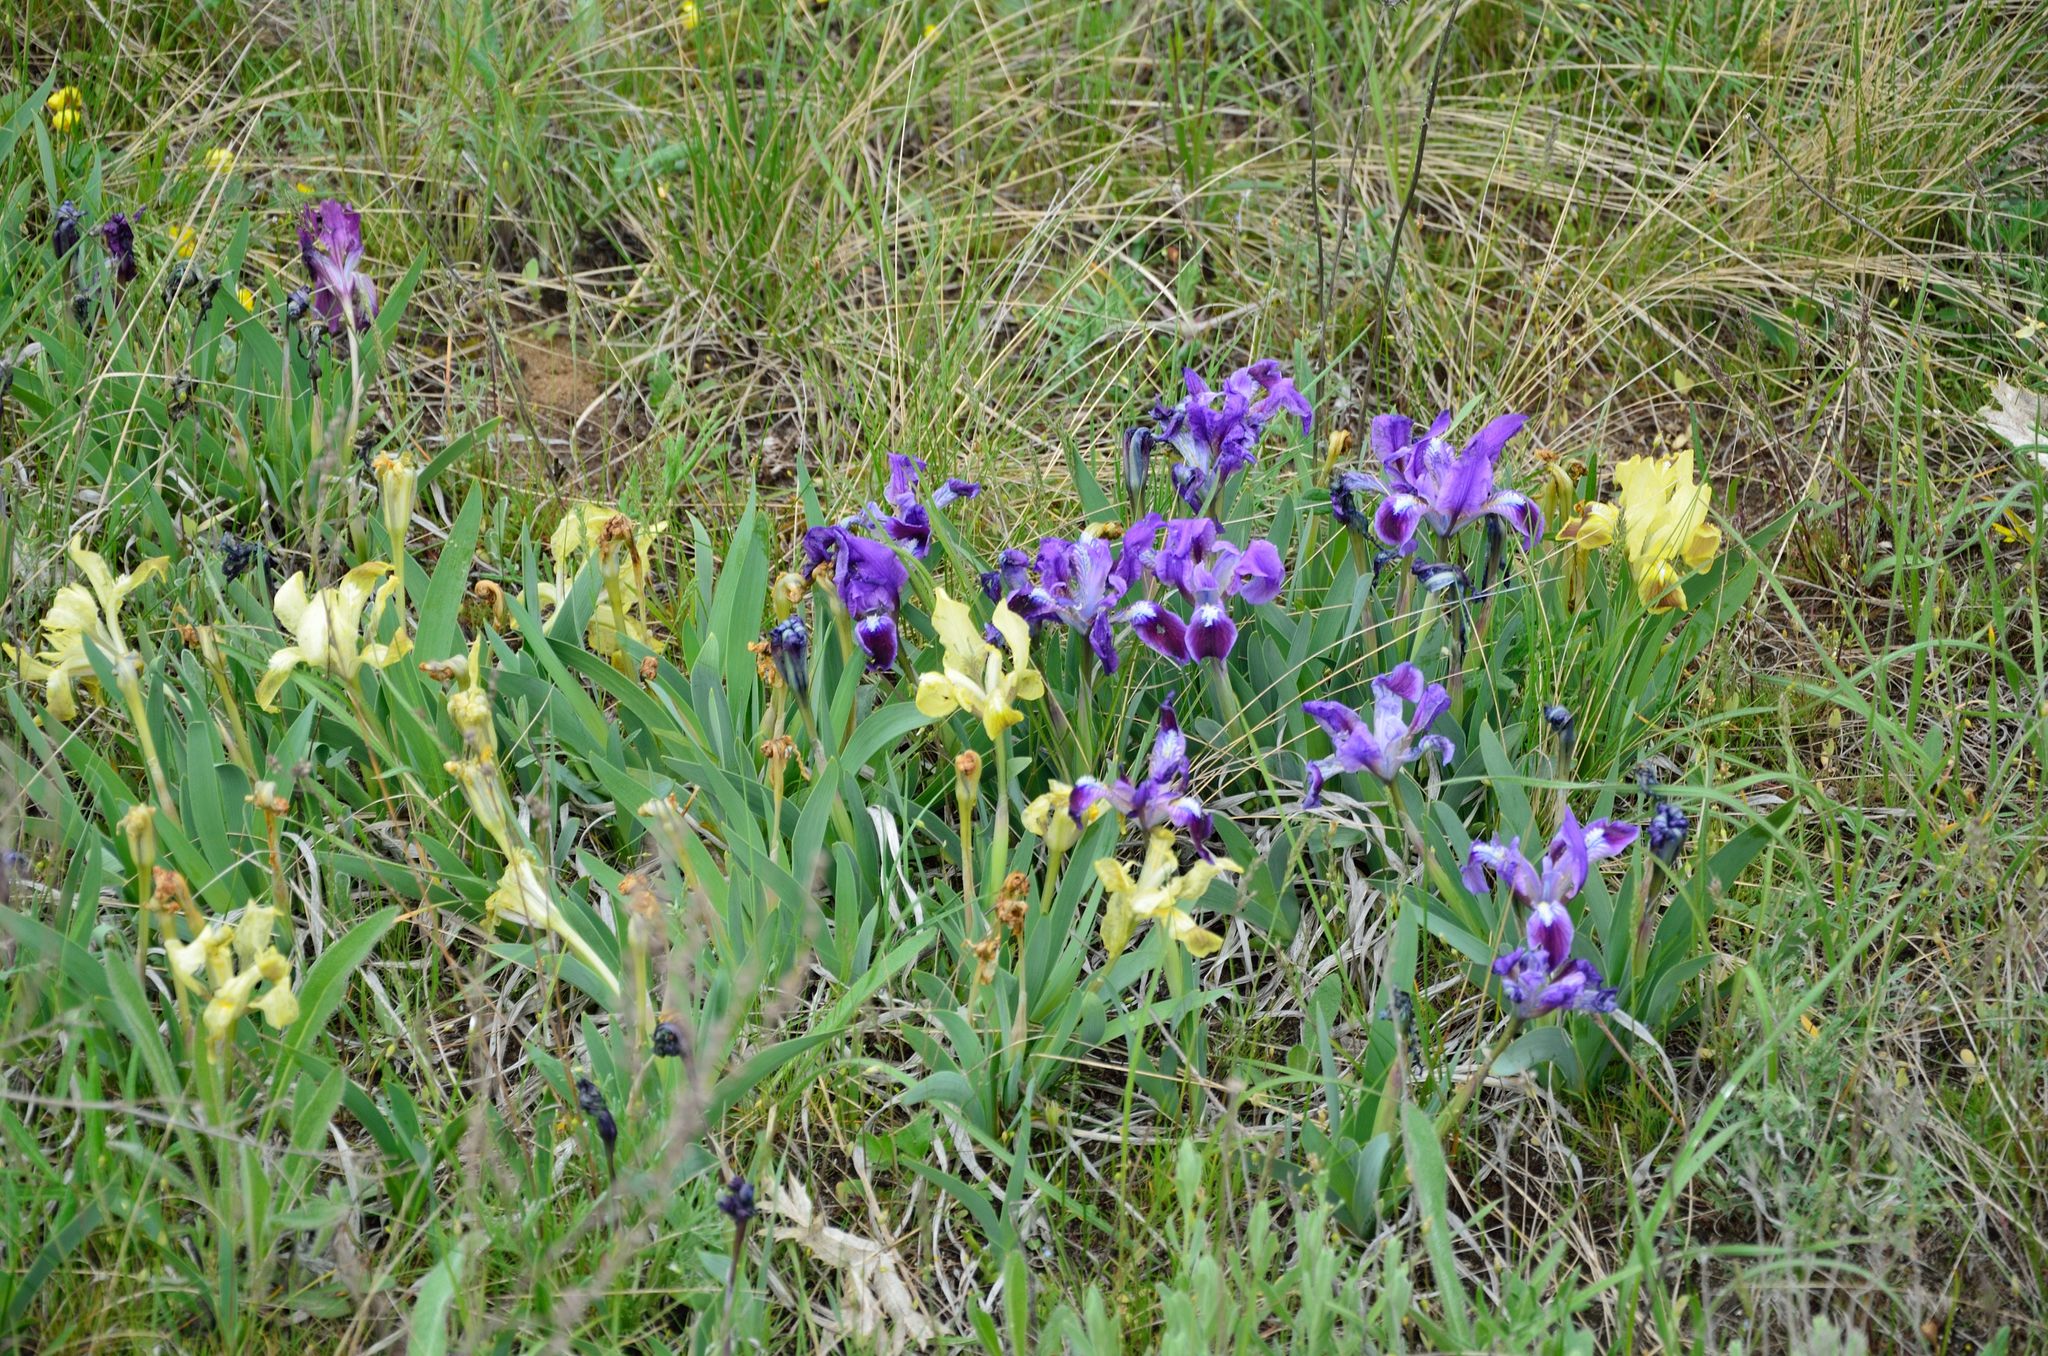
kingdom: Plantae
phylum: Tracheophyta
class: Liliopsida
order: Asparagales
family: Iridaceae
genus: Iris
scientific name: Iris pumila
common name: Dwarf iris
